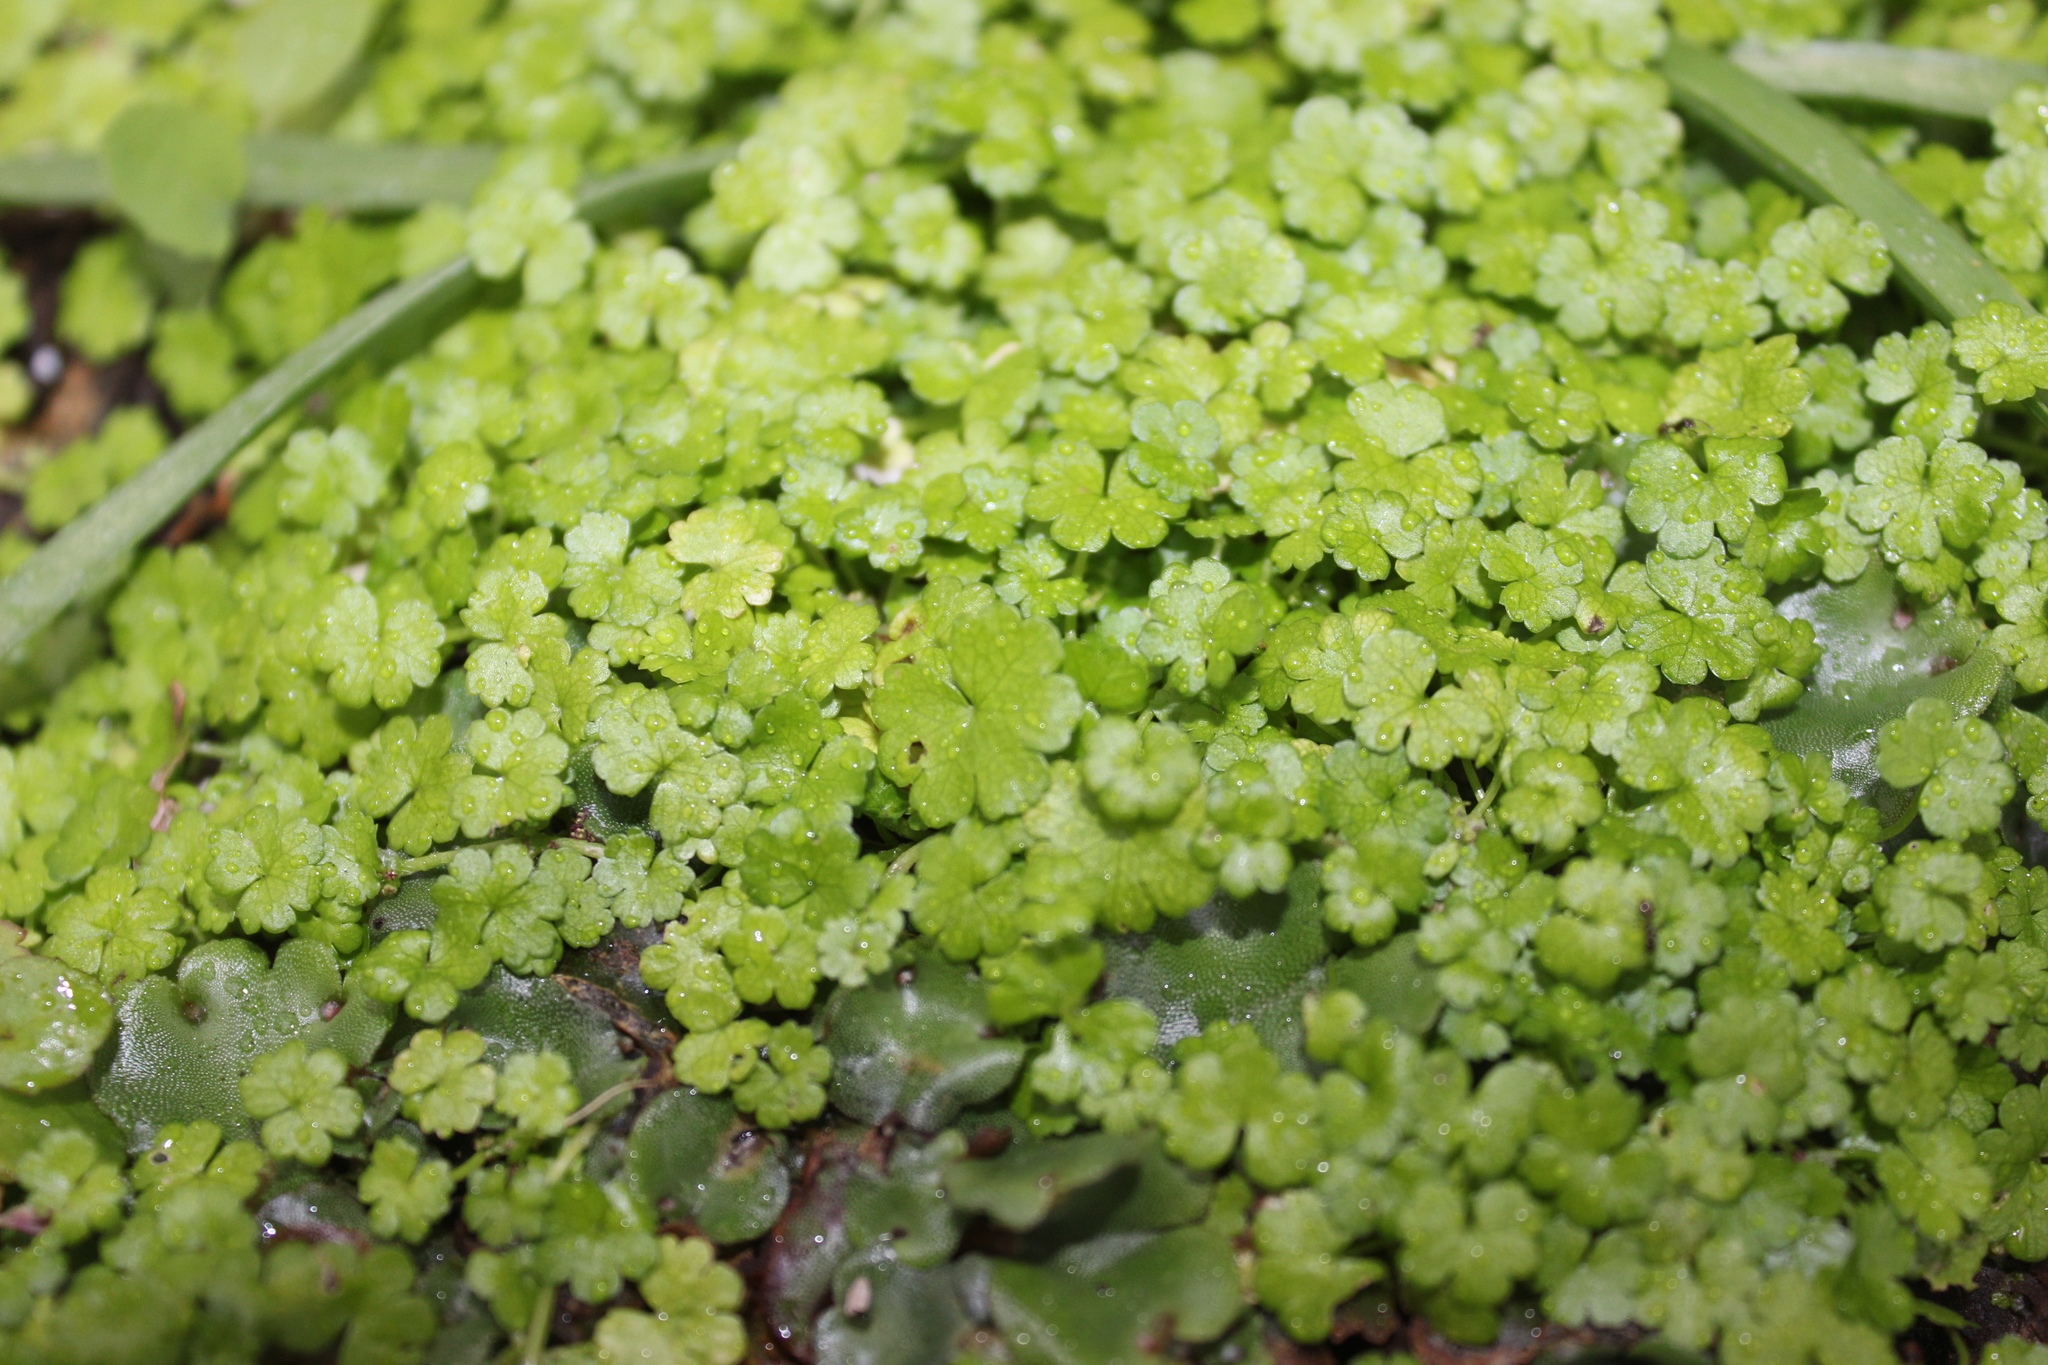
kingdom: Plantae
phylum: Tracheophyta
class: Magnoliopsida
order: Apiales
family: Araliaceae
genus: Hydrocotyle
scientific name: Hydrocotyle heteromeria
